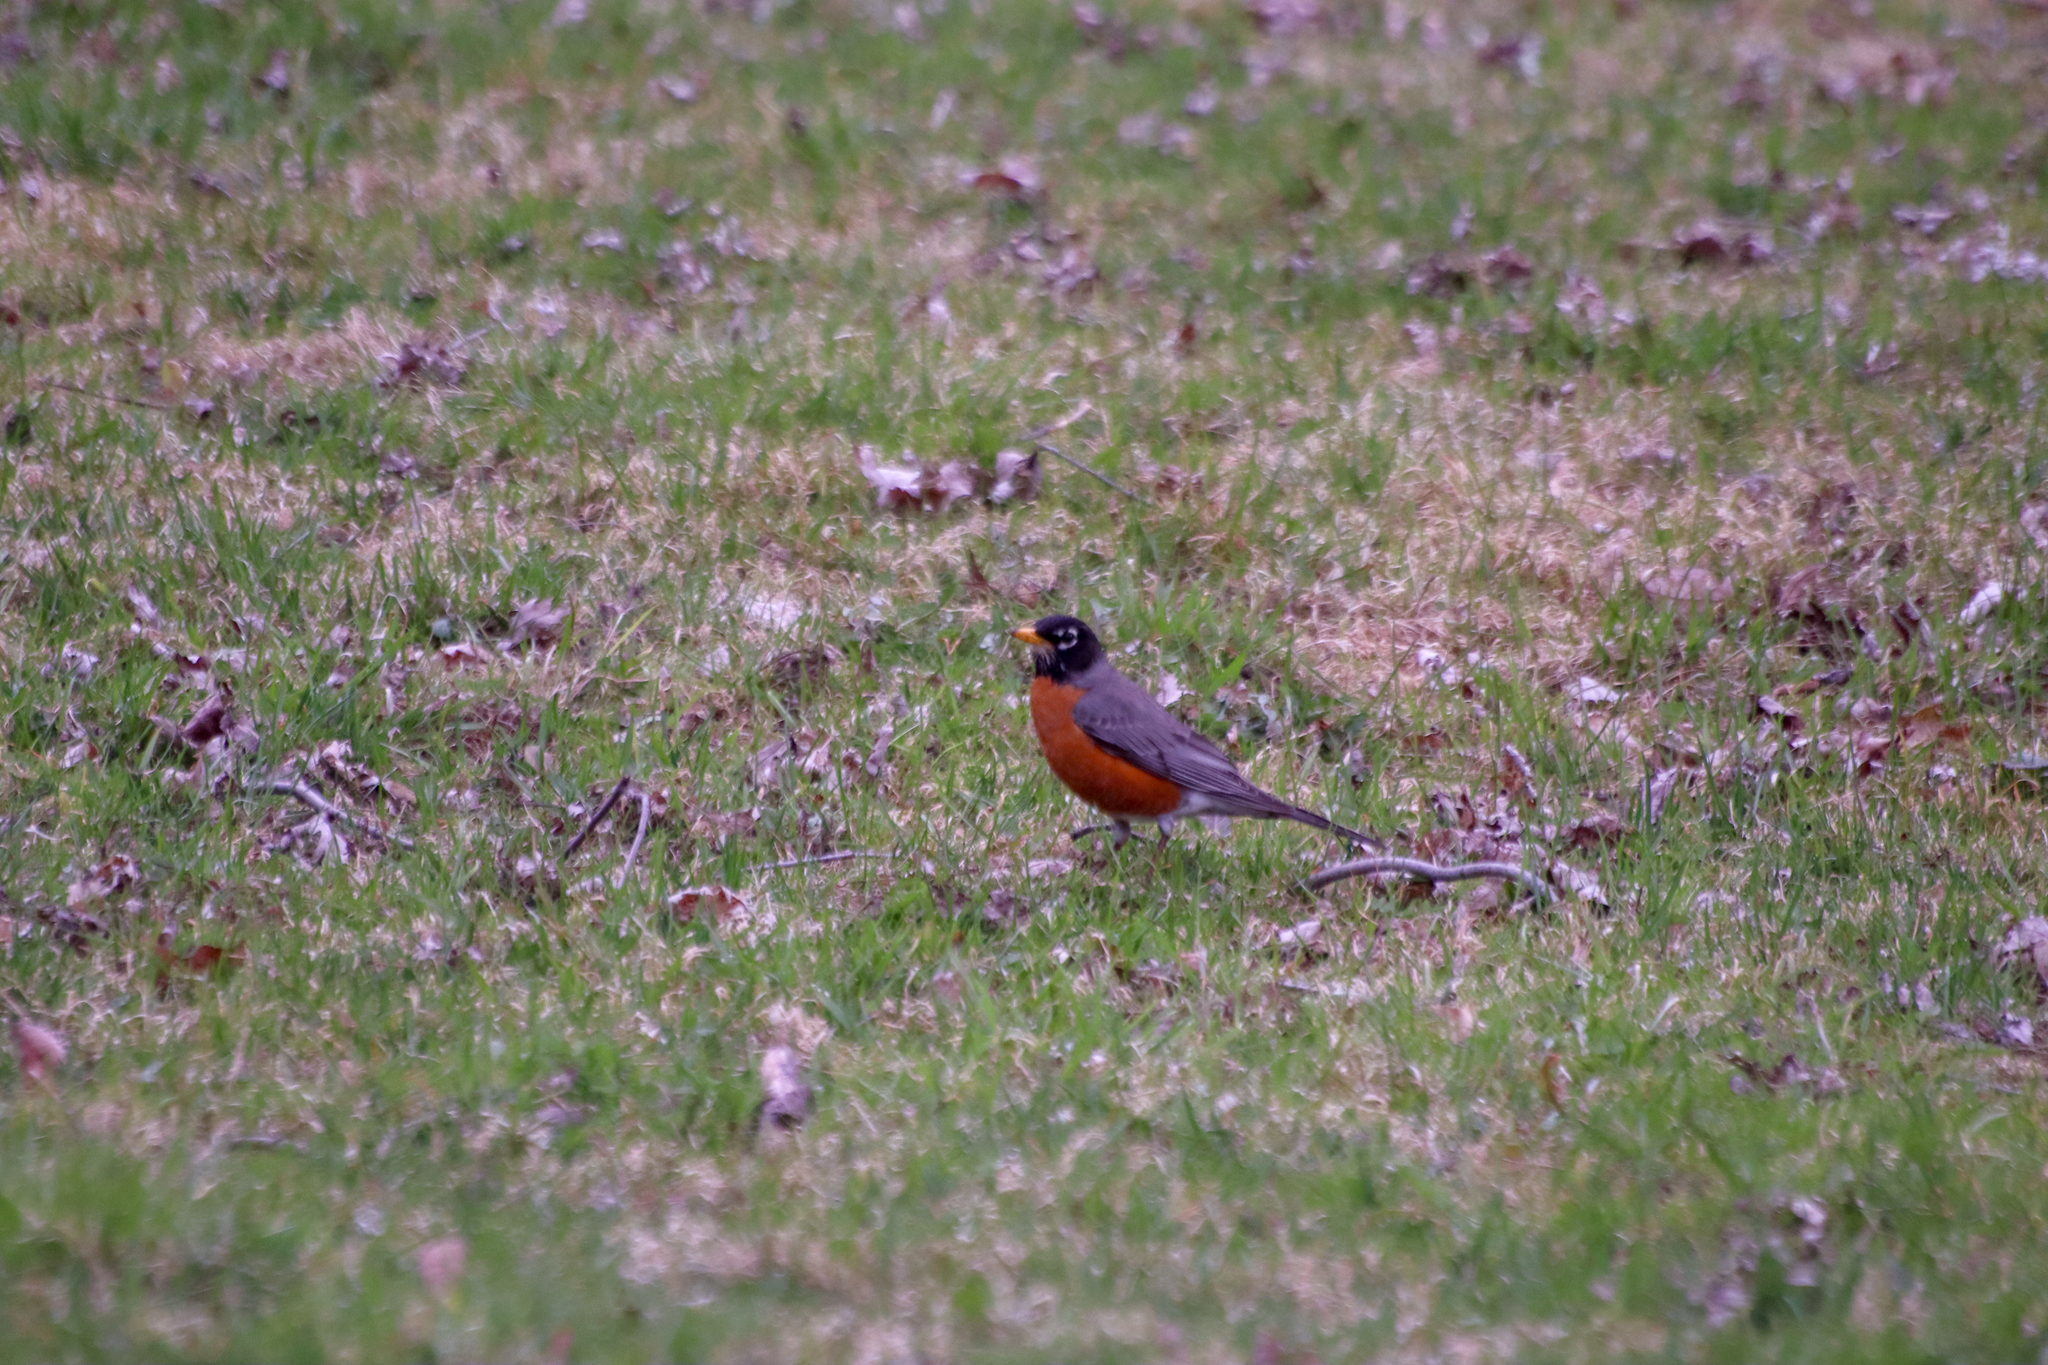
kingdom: Animalia
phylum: Chordata
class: Aves
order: Passeriformes
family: Turdidae
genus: Turdus
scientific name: Turdus migratorius
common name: American robin
